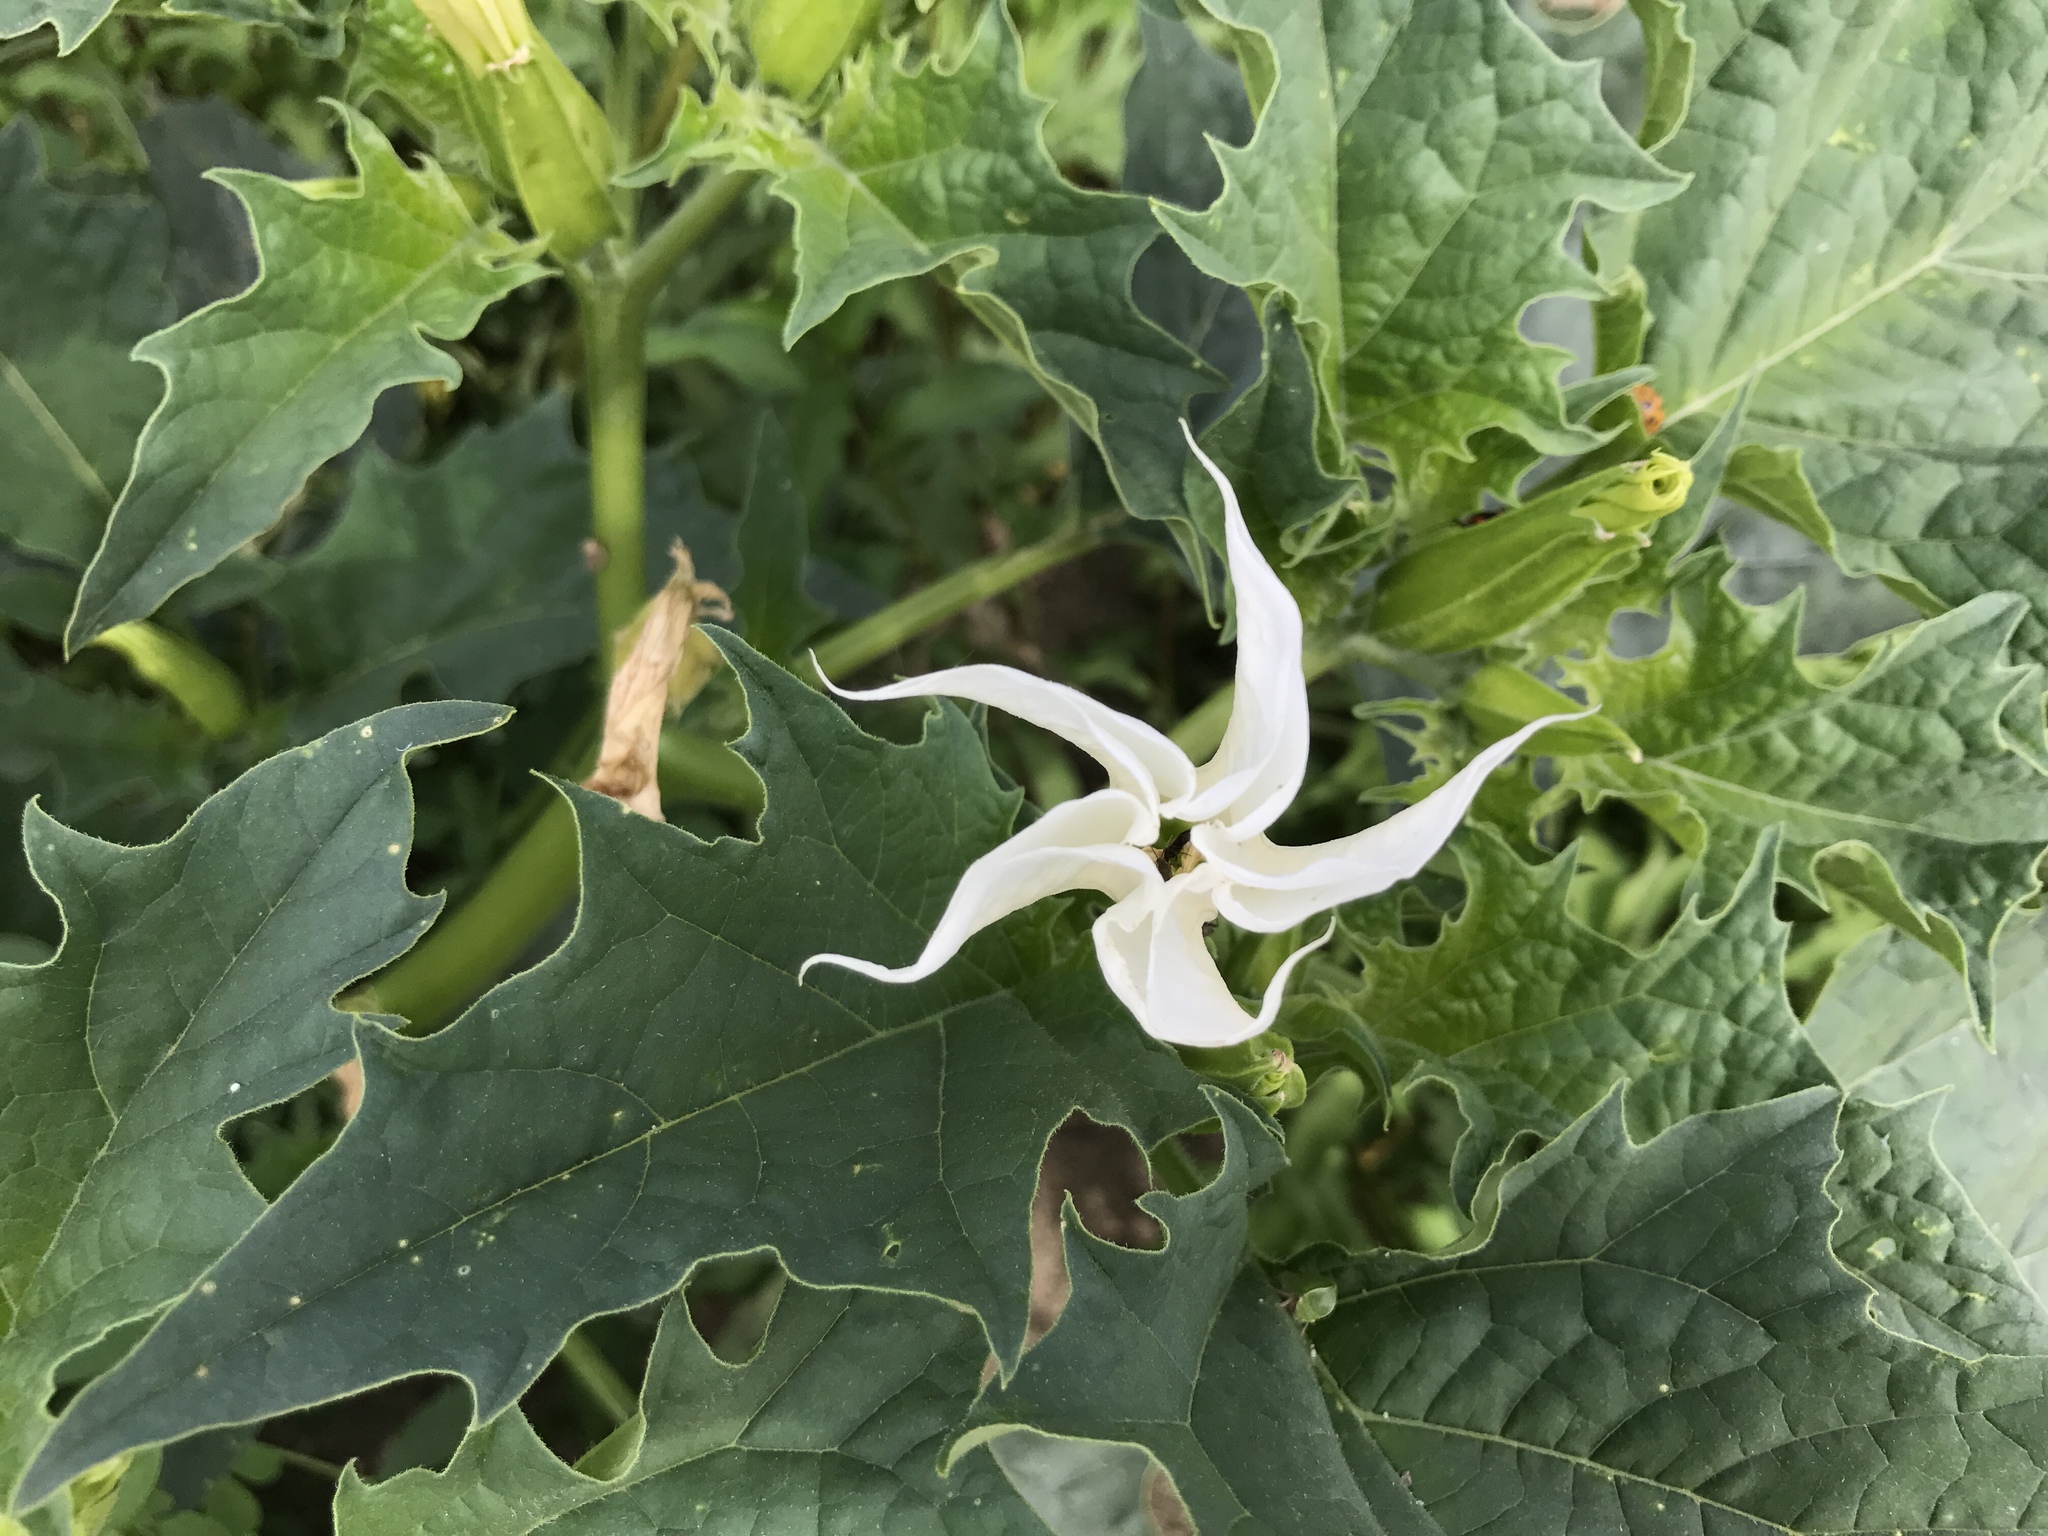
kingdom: Plantae
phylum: Tracheophyta
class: Magnoliopsida
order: Solanales
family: Solanaceae
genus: Datura
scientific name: Datura stramonium
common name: Thorn-apple
